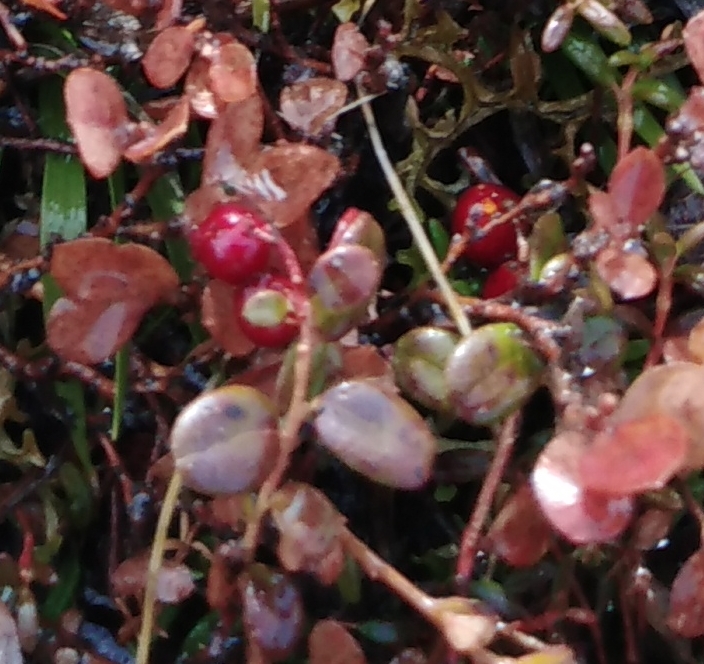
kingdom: Plantae
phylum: Tracheophyta
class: Magnoliopsida
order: Ericales
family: Ericaceae
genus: Vaccinium
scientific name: Vaccinium vitis-idaea
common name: Cowberry
